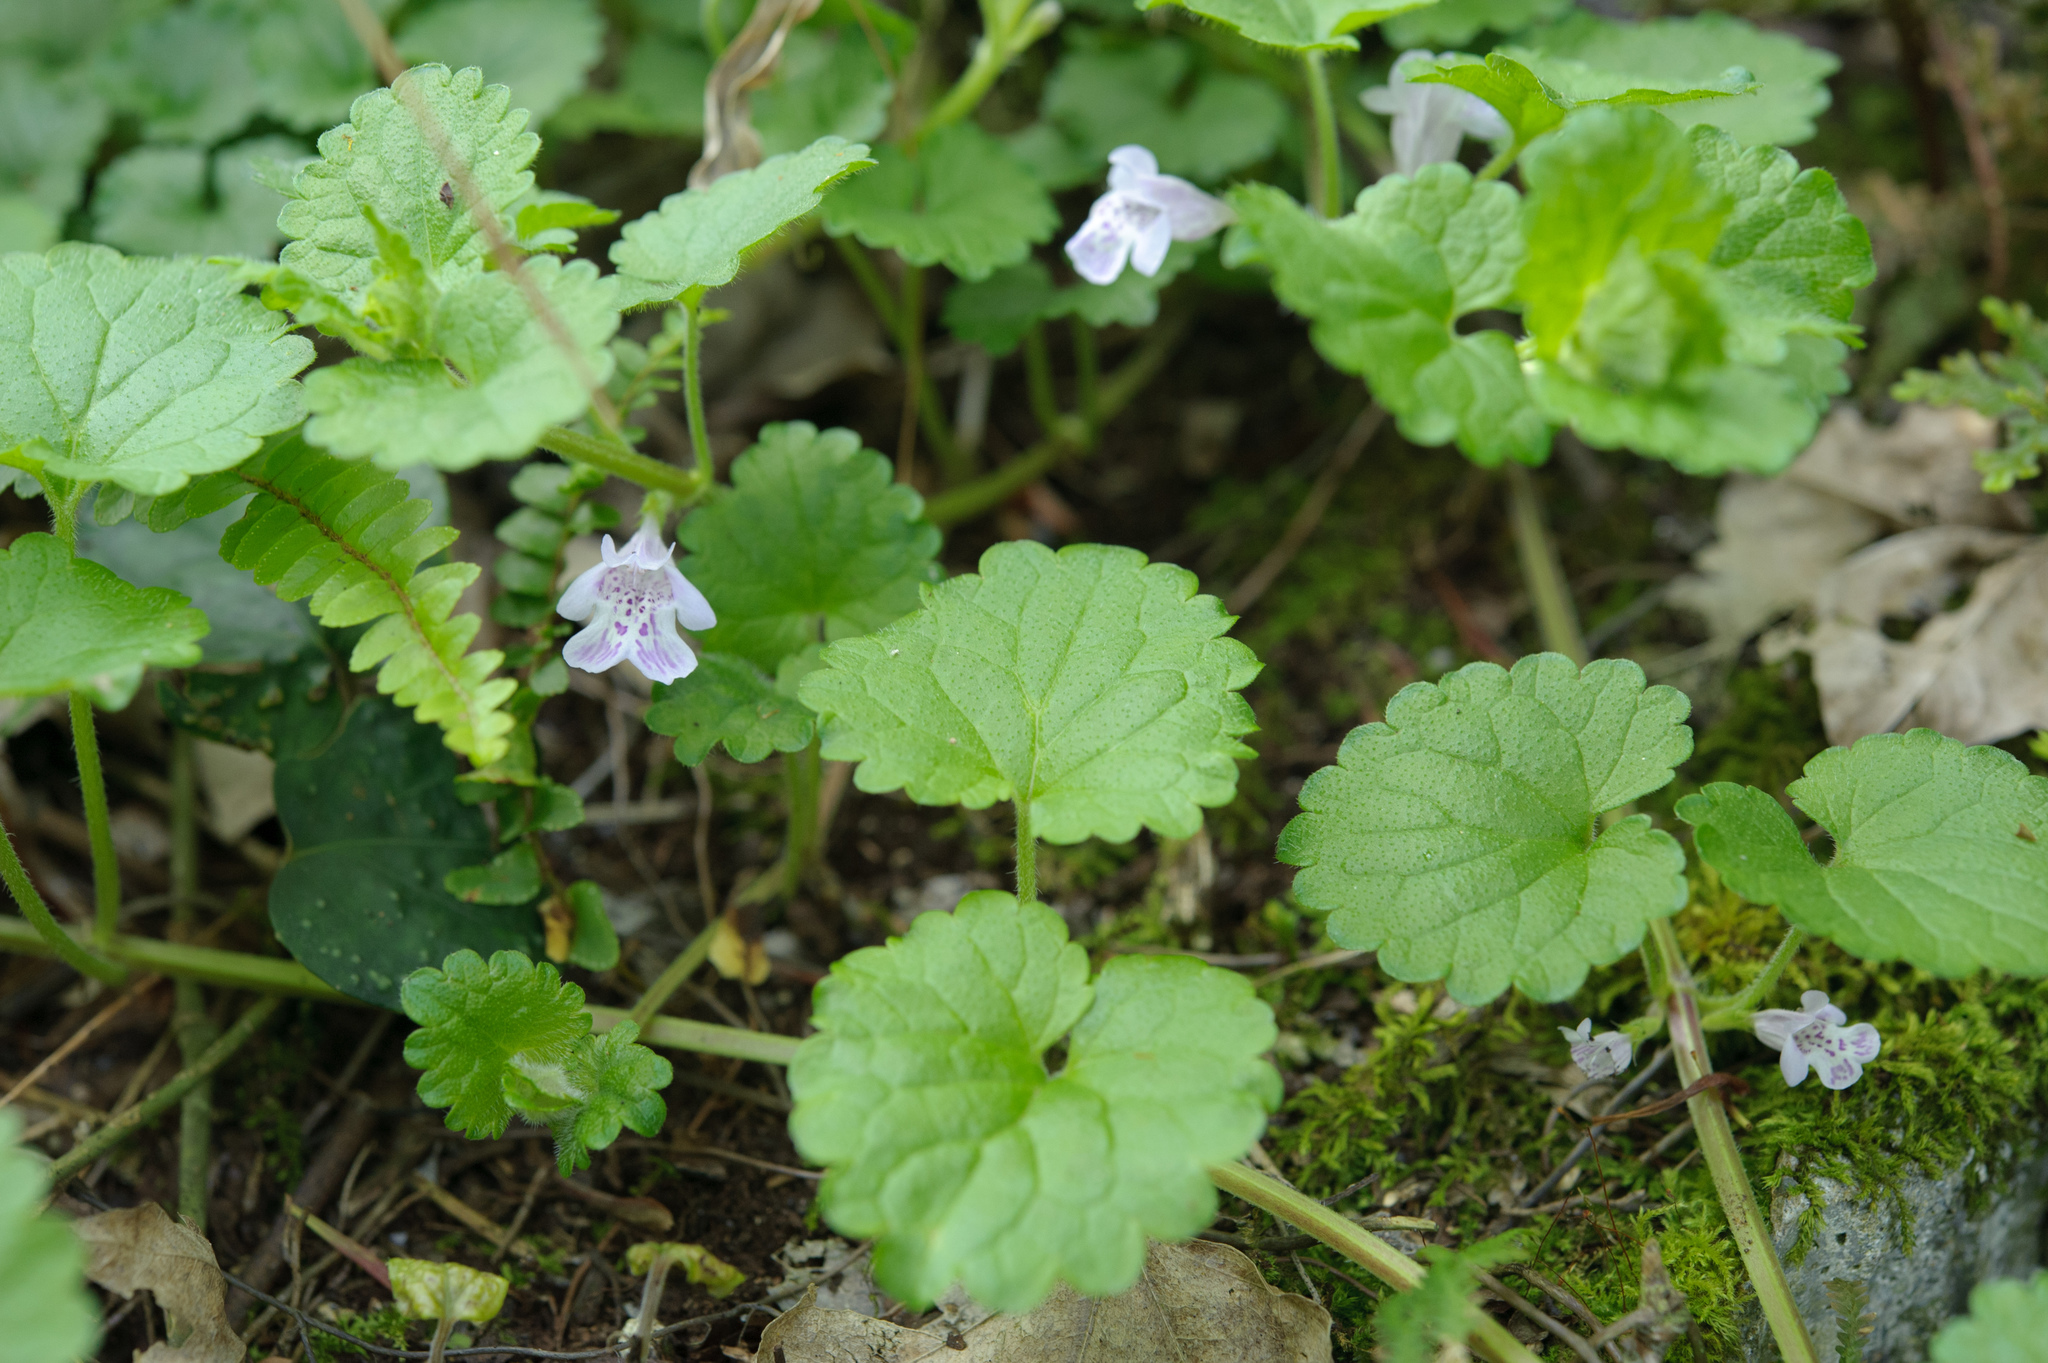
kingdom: Plantae
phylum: Tracheophyta
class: Magnoliopsida
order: Lamiales
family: Lamiaceae
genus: Glechoma
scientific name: Glechoma grandis
